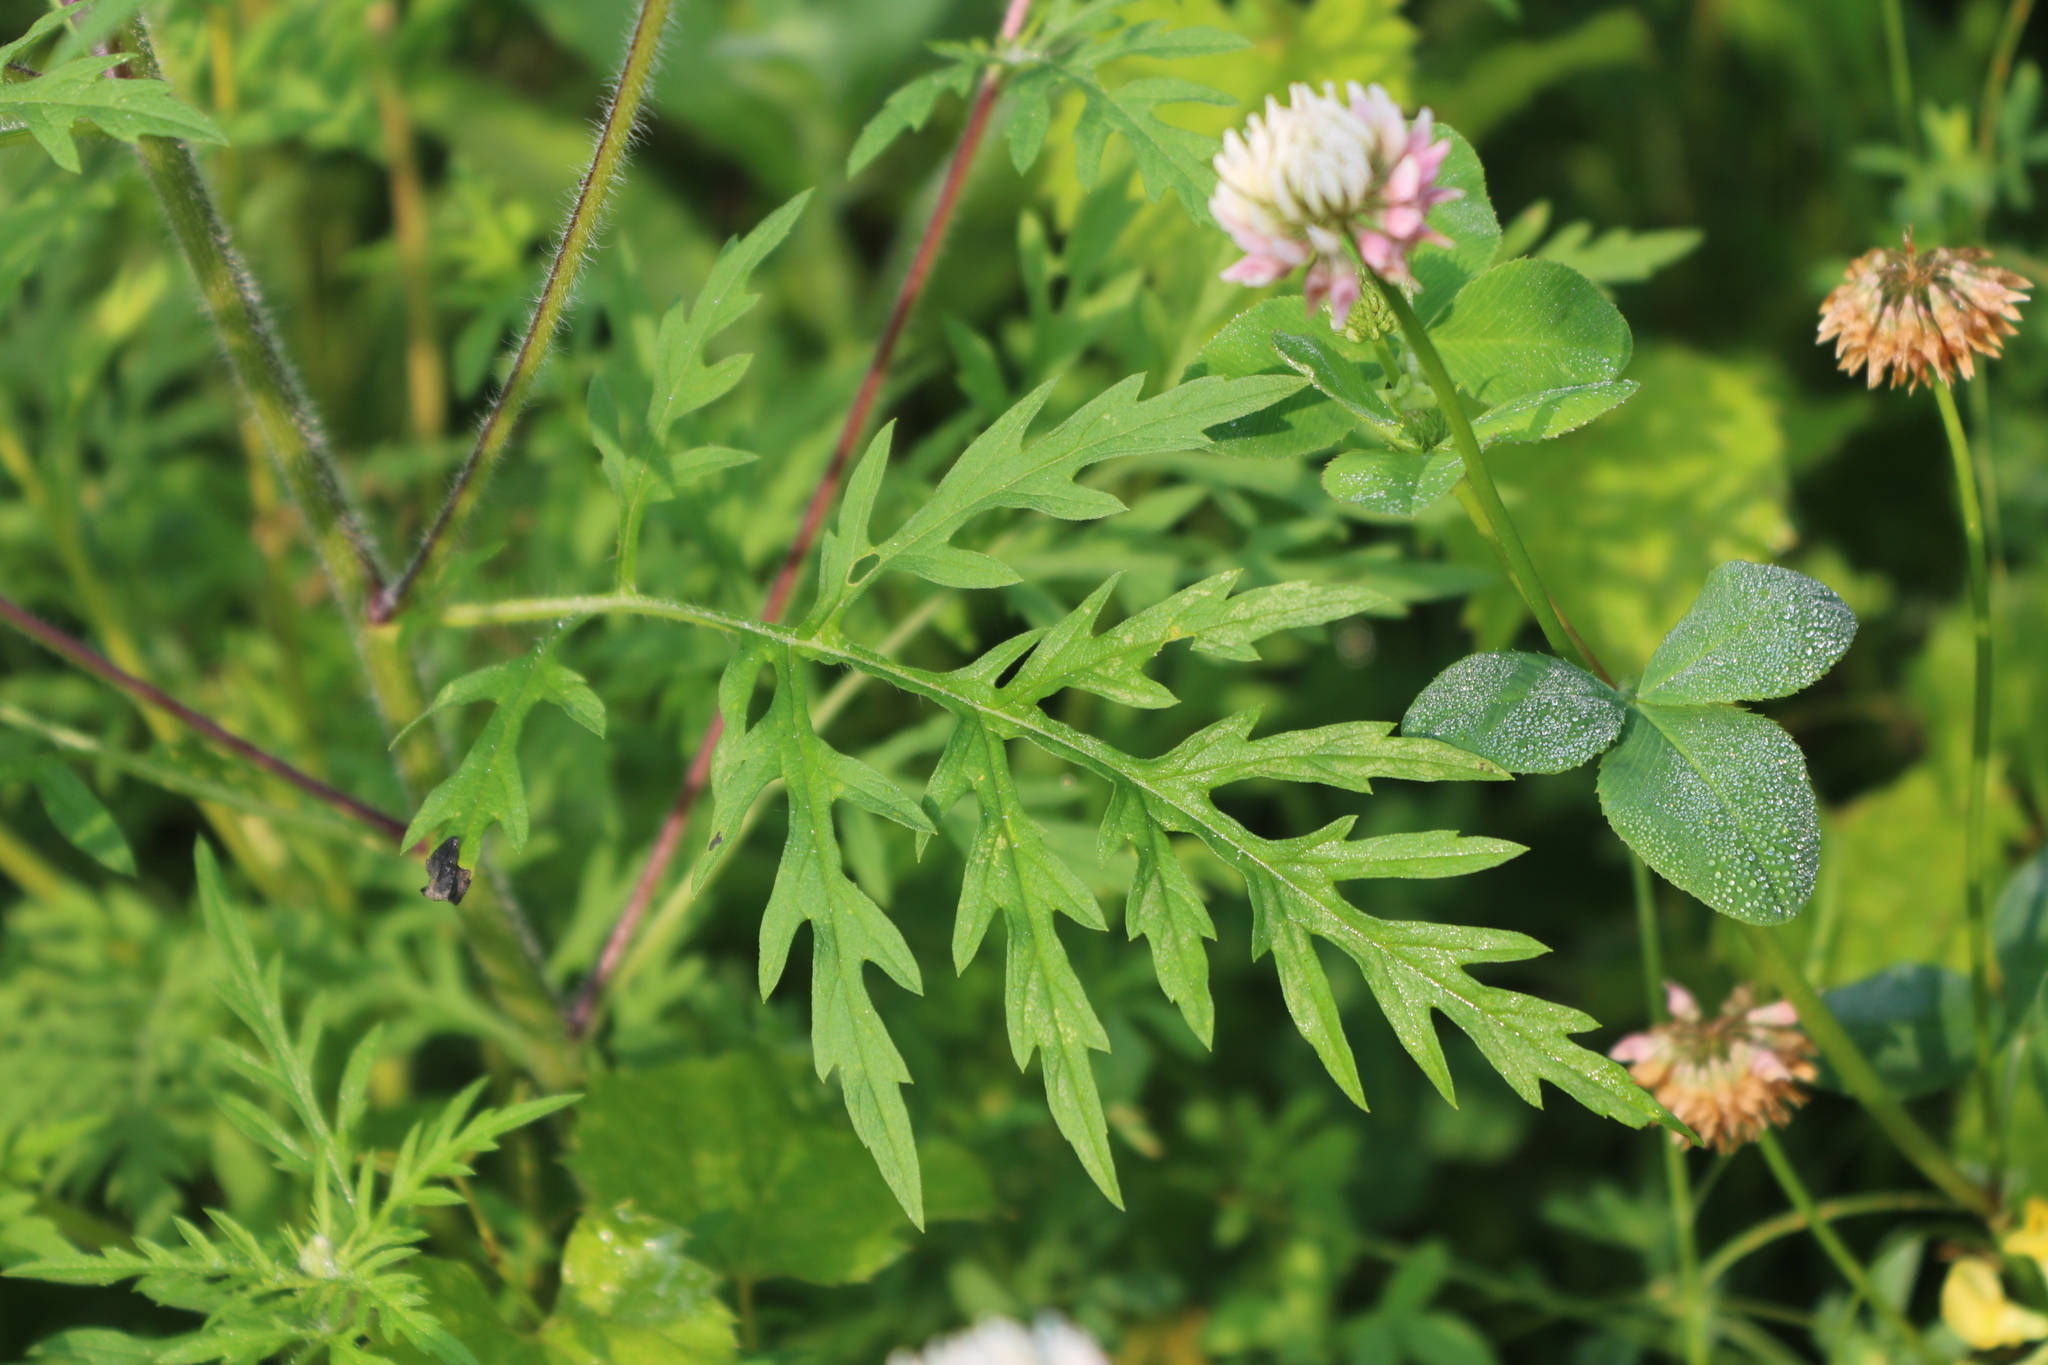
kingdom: Plantae
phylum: Tracheophyta
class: Magnoliopsida
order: Asterales
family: Asteraceae
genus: Ambrosia
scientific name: Ambrosia artemisiifolia
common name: Annual ragweed
